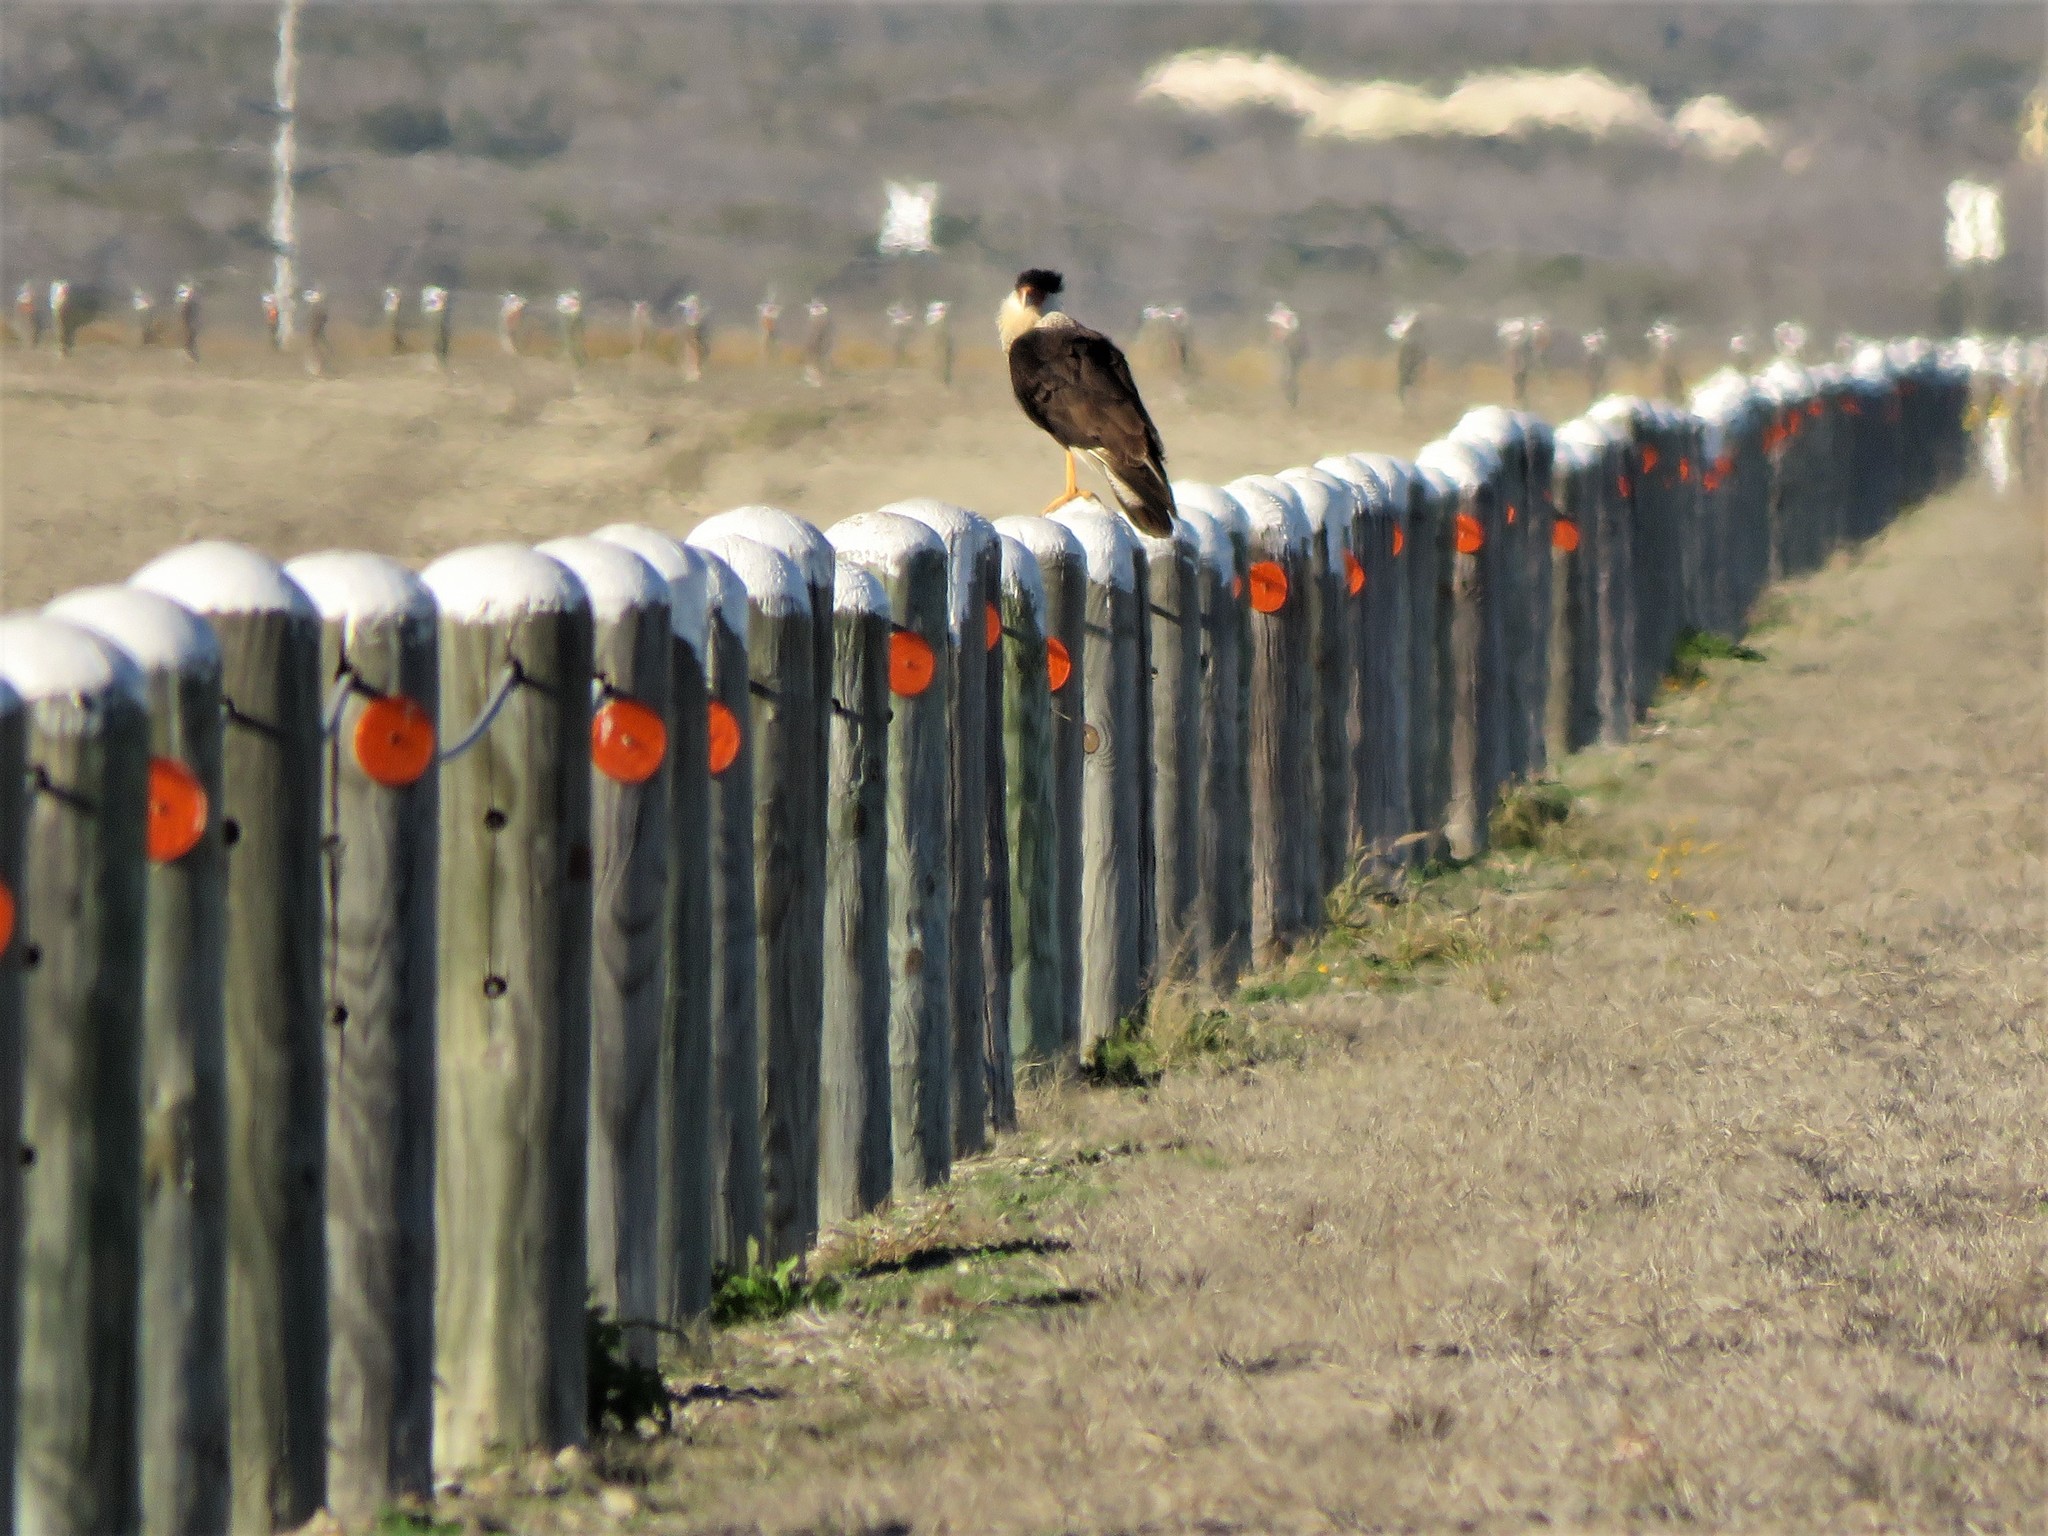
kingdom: Animalia
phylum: Chordata
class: Aves
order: Falconiformes
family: Falconidae
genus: Caracara
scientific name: Caracara plancus
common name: Southern caracara
